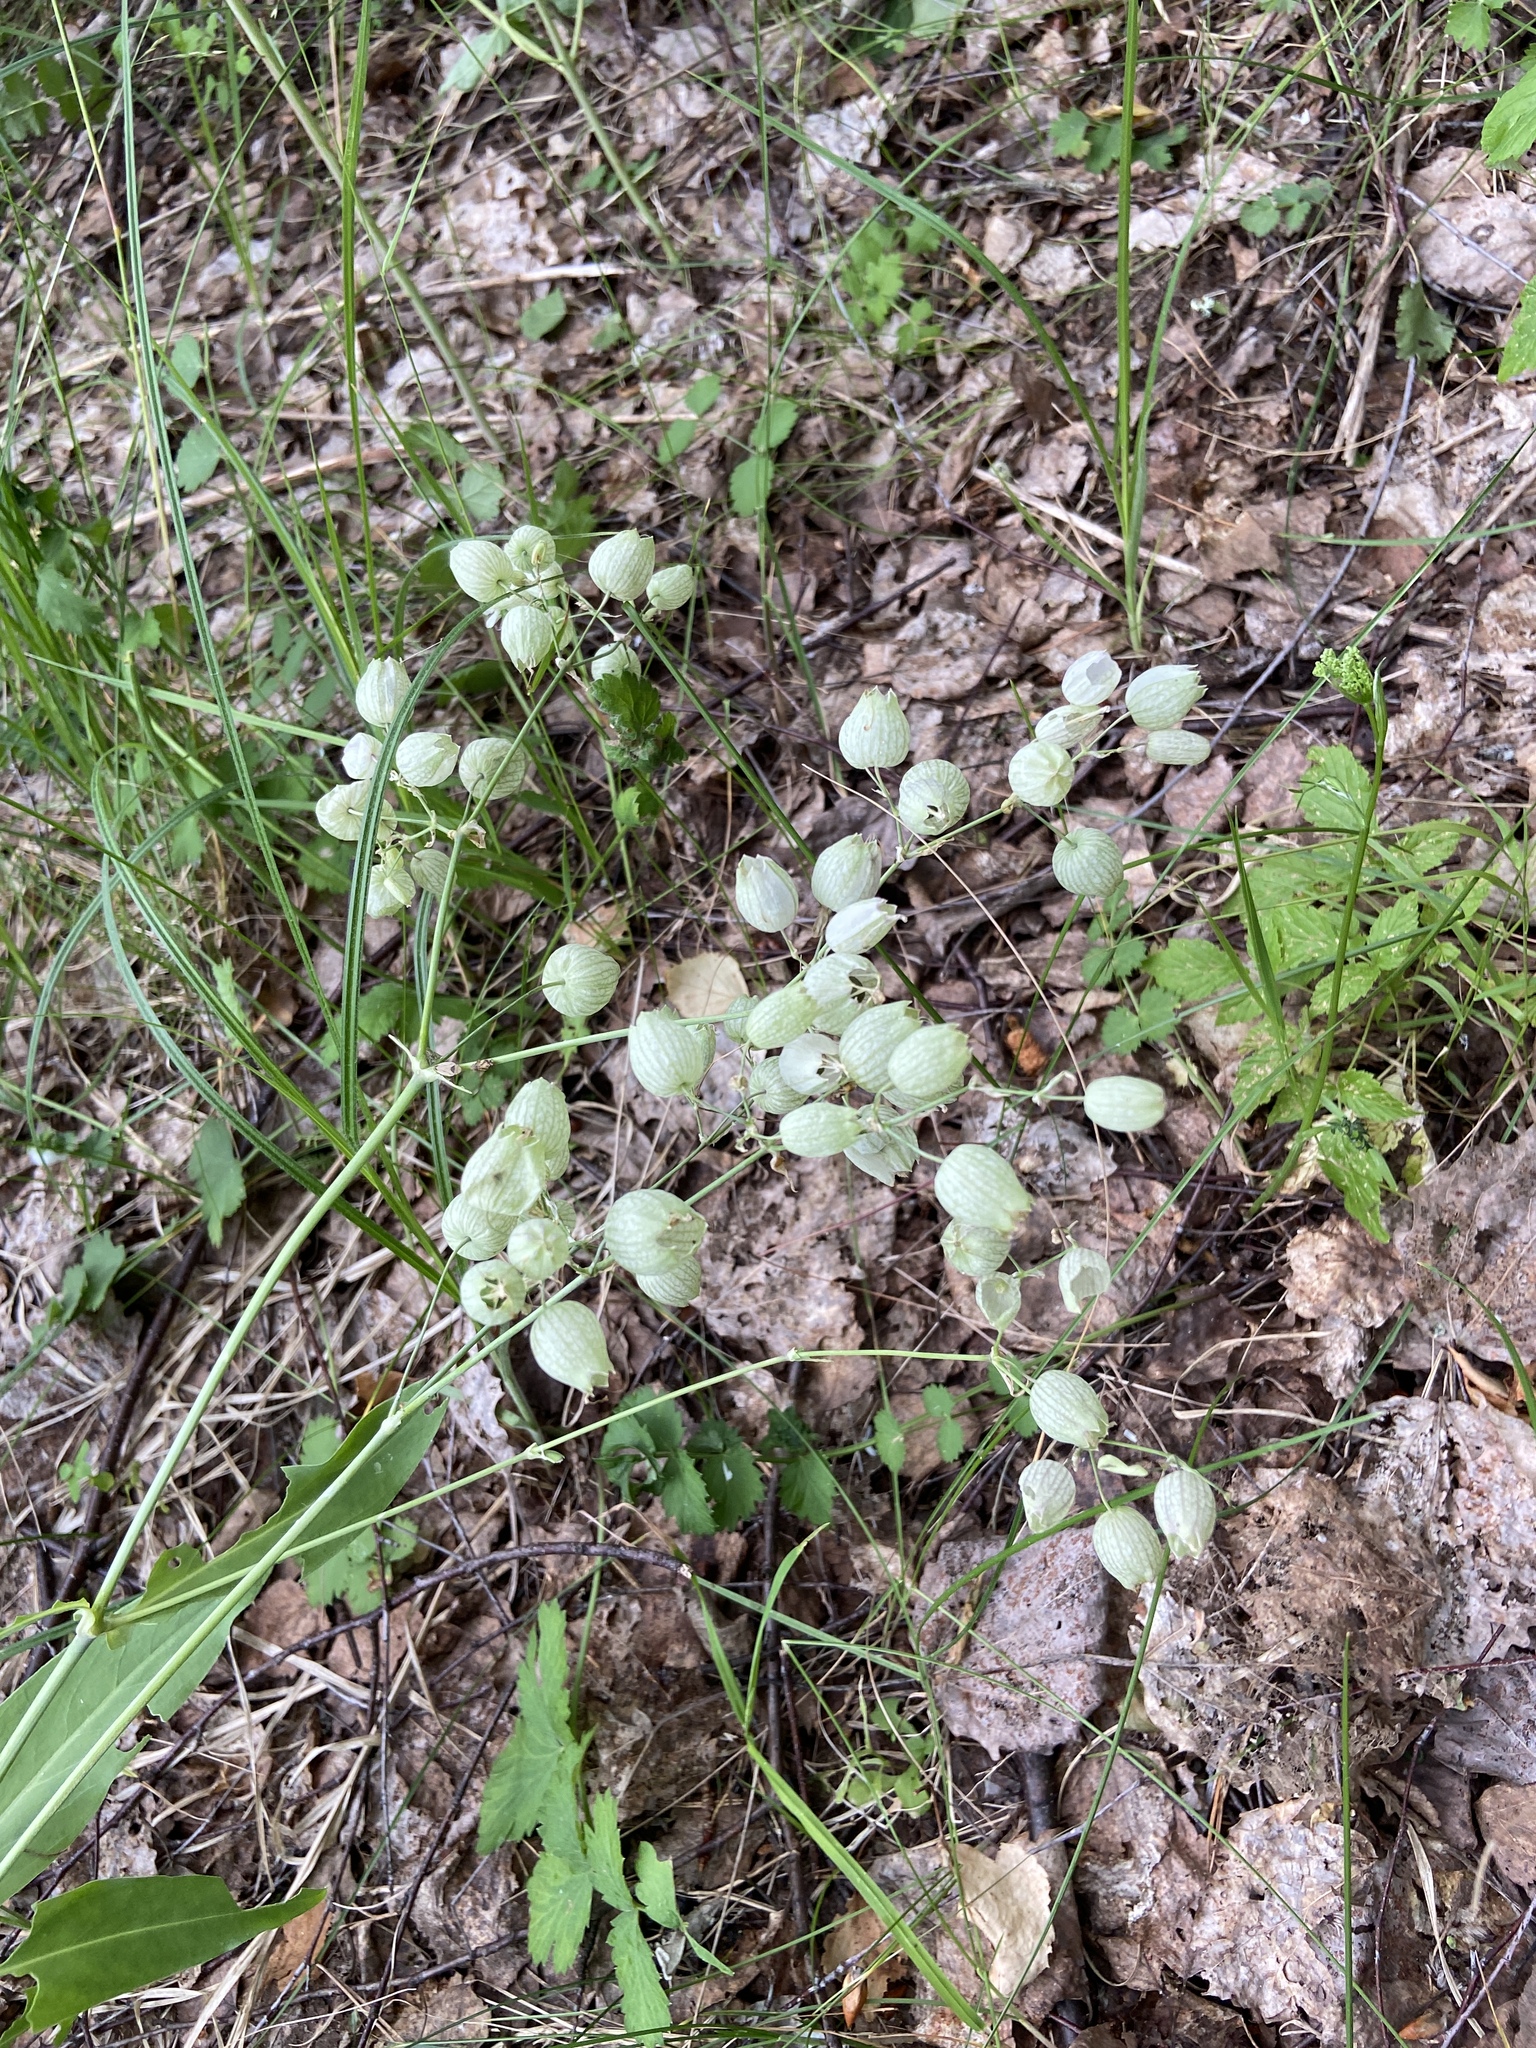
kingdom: Plantae
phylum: Tracheophyta
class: Magnoliopsida
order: Caryophyllales
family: Caryophyllaceae
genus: Silene
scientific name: Silene vulgaris
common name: Bladder campion
